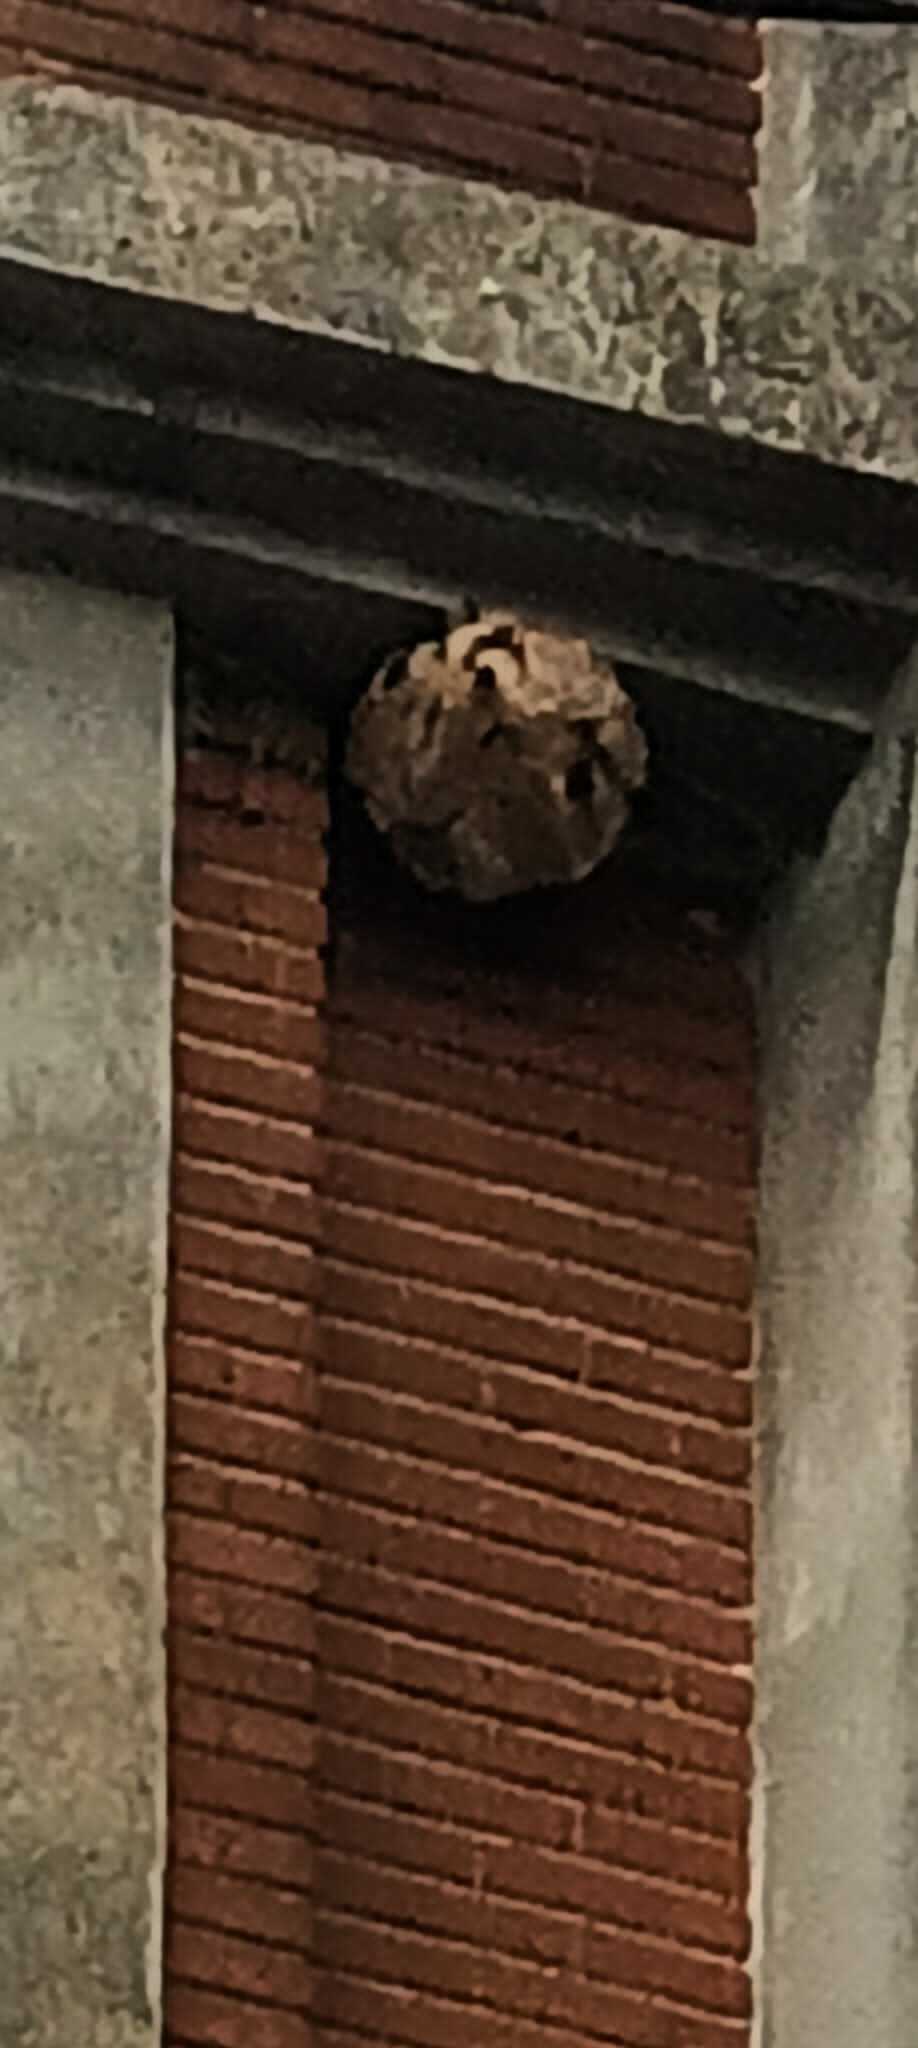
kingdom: Animalia
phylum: Arthropoda
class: Insecta
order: Hymenoptera
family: Vespidae
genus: Vespa
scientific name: Vespa velutina
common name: Asian hornet
